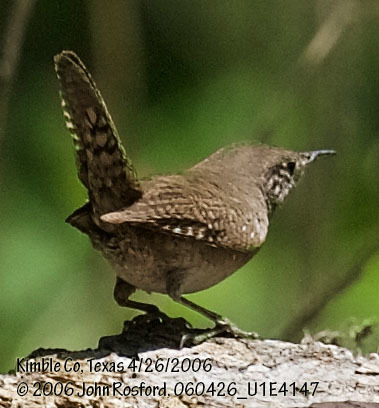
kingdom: Animalia
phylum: Chordata
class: Aves
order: Passeriformes
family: Troglodytidae
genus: Troglodytes
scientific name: Troglodytes aedon
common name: House wren
